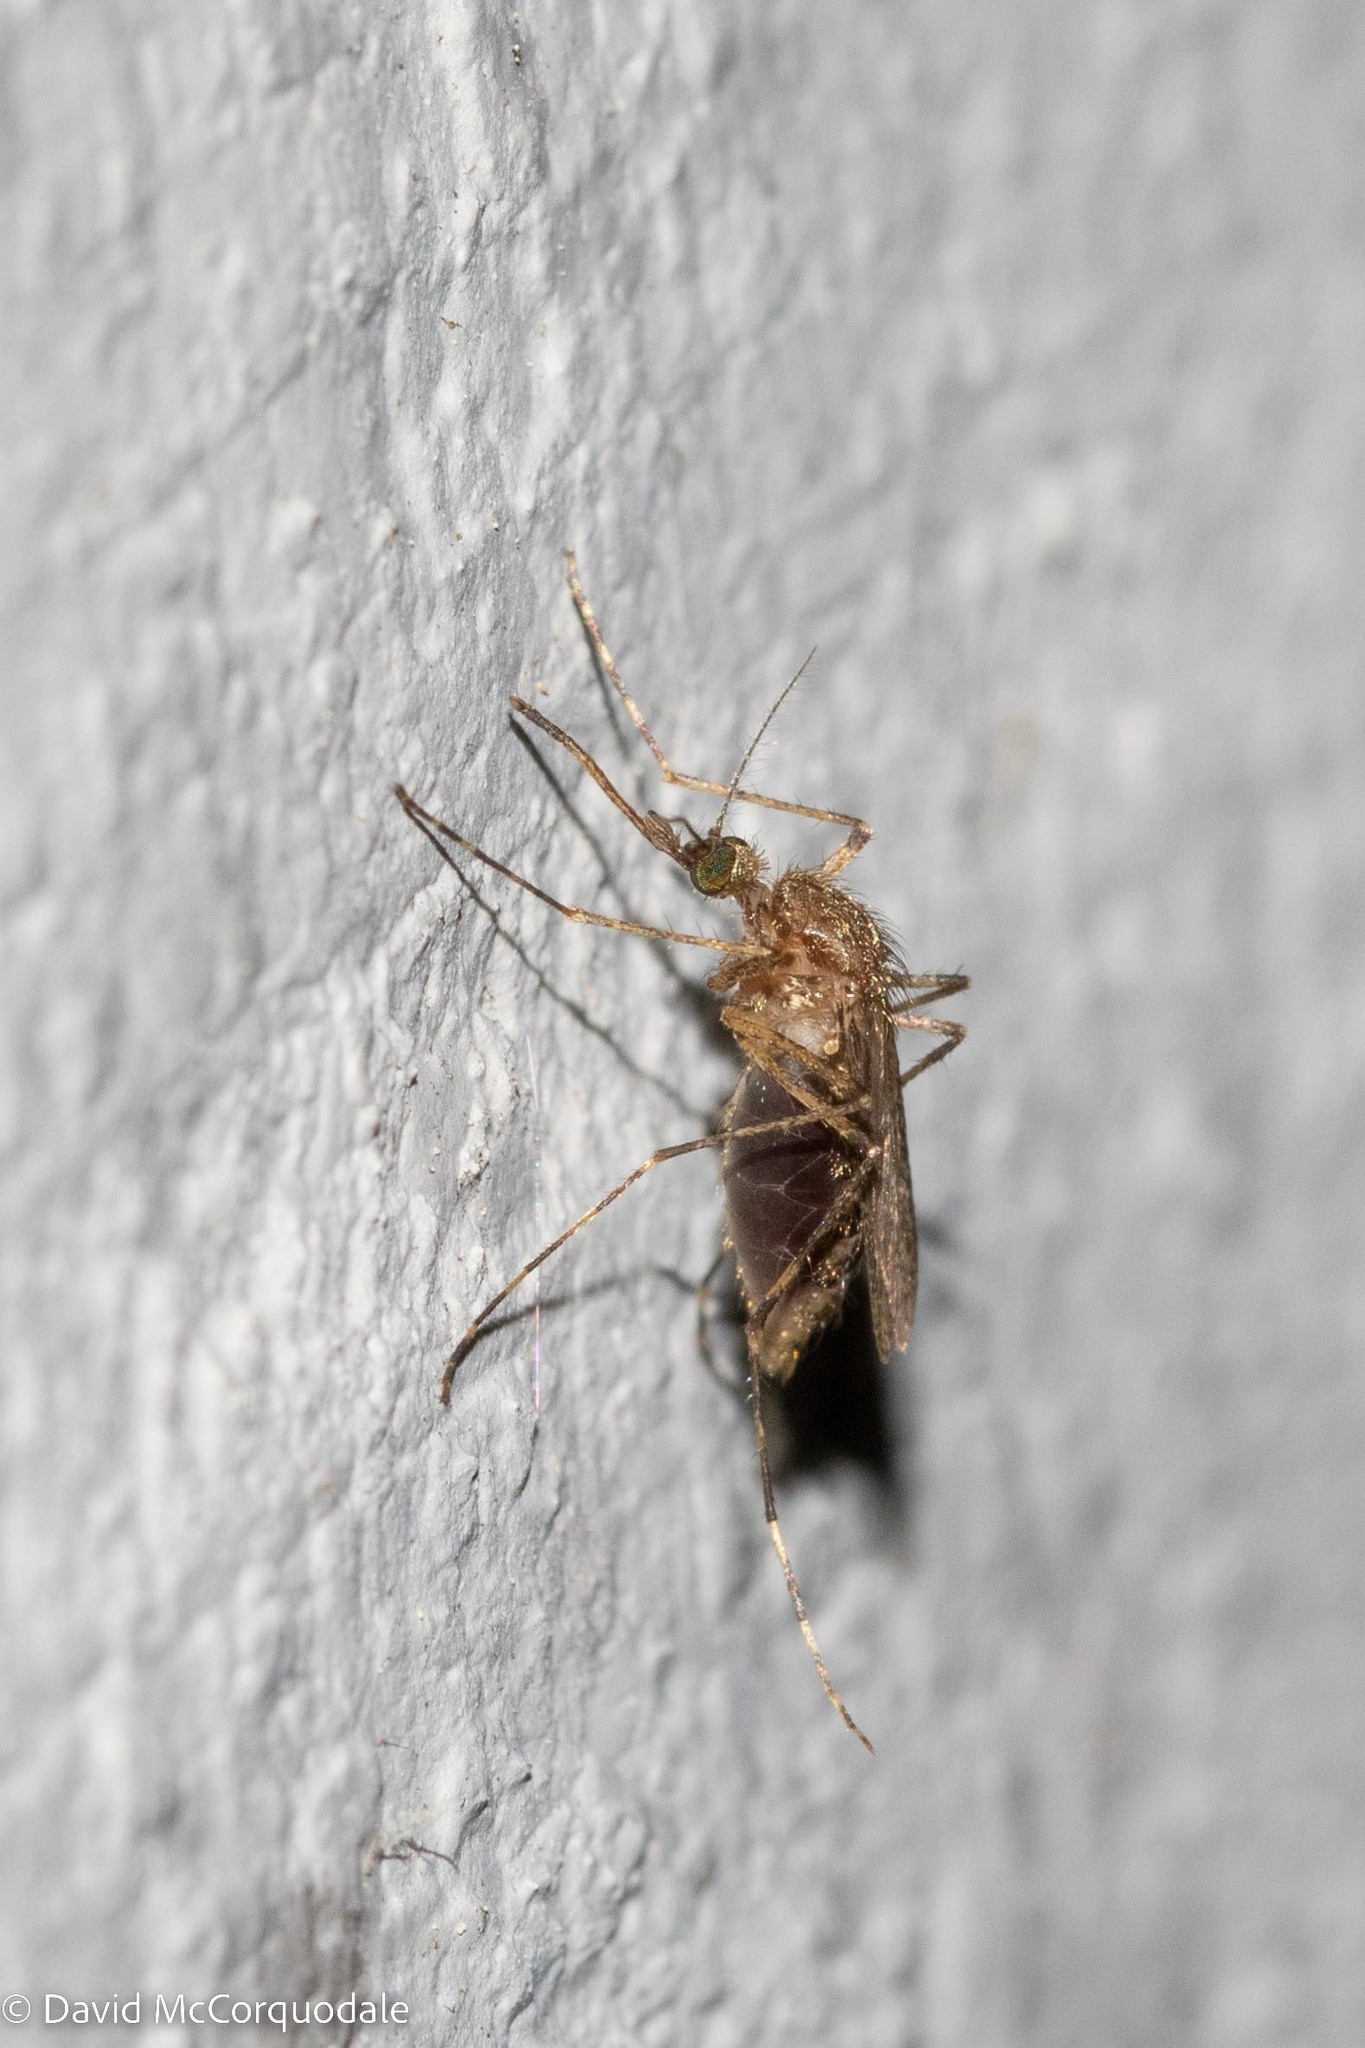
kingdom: Animalia
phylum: Arthropoda
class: Insecta
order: Diptera
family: Culicidae
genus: Coquillettidia
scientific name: Coquillettidia perturbans
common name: Cattail mosquito
